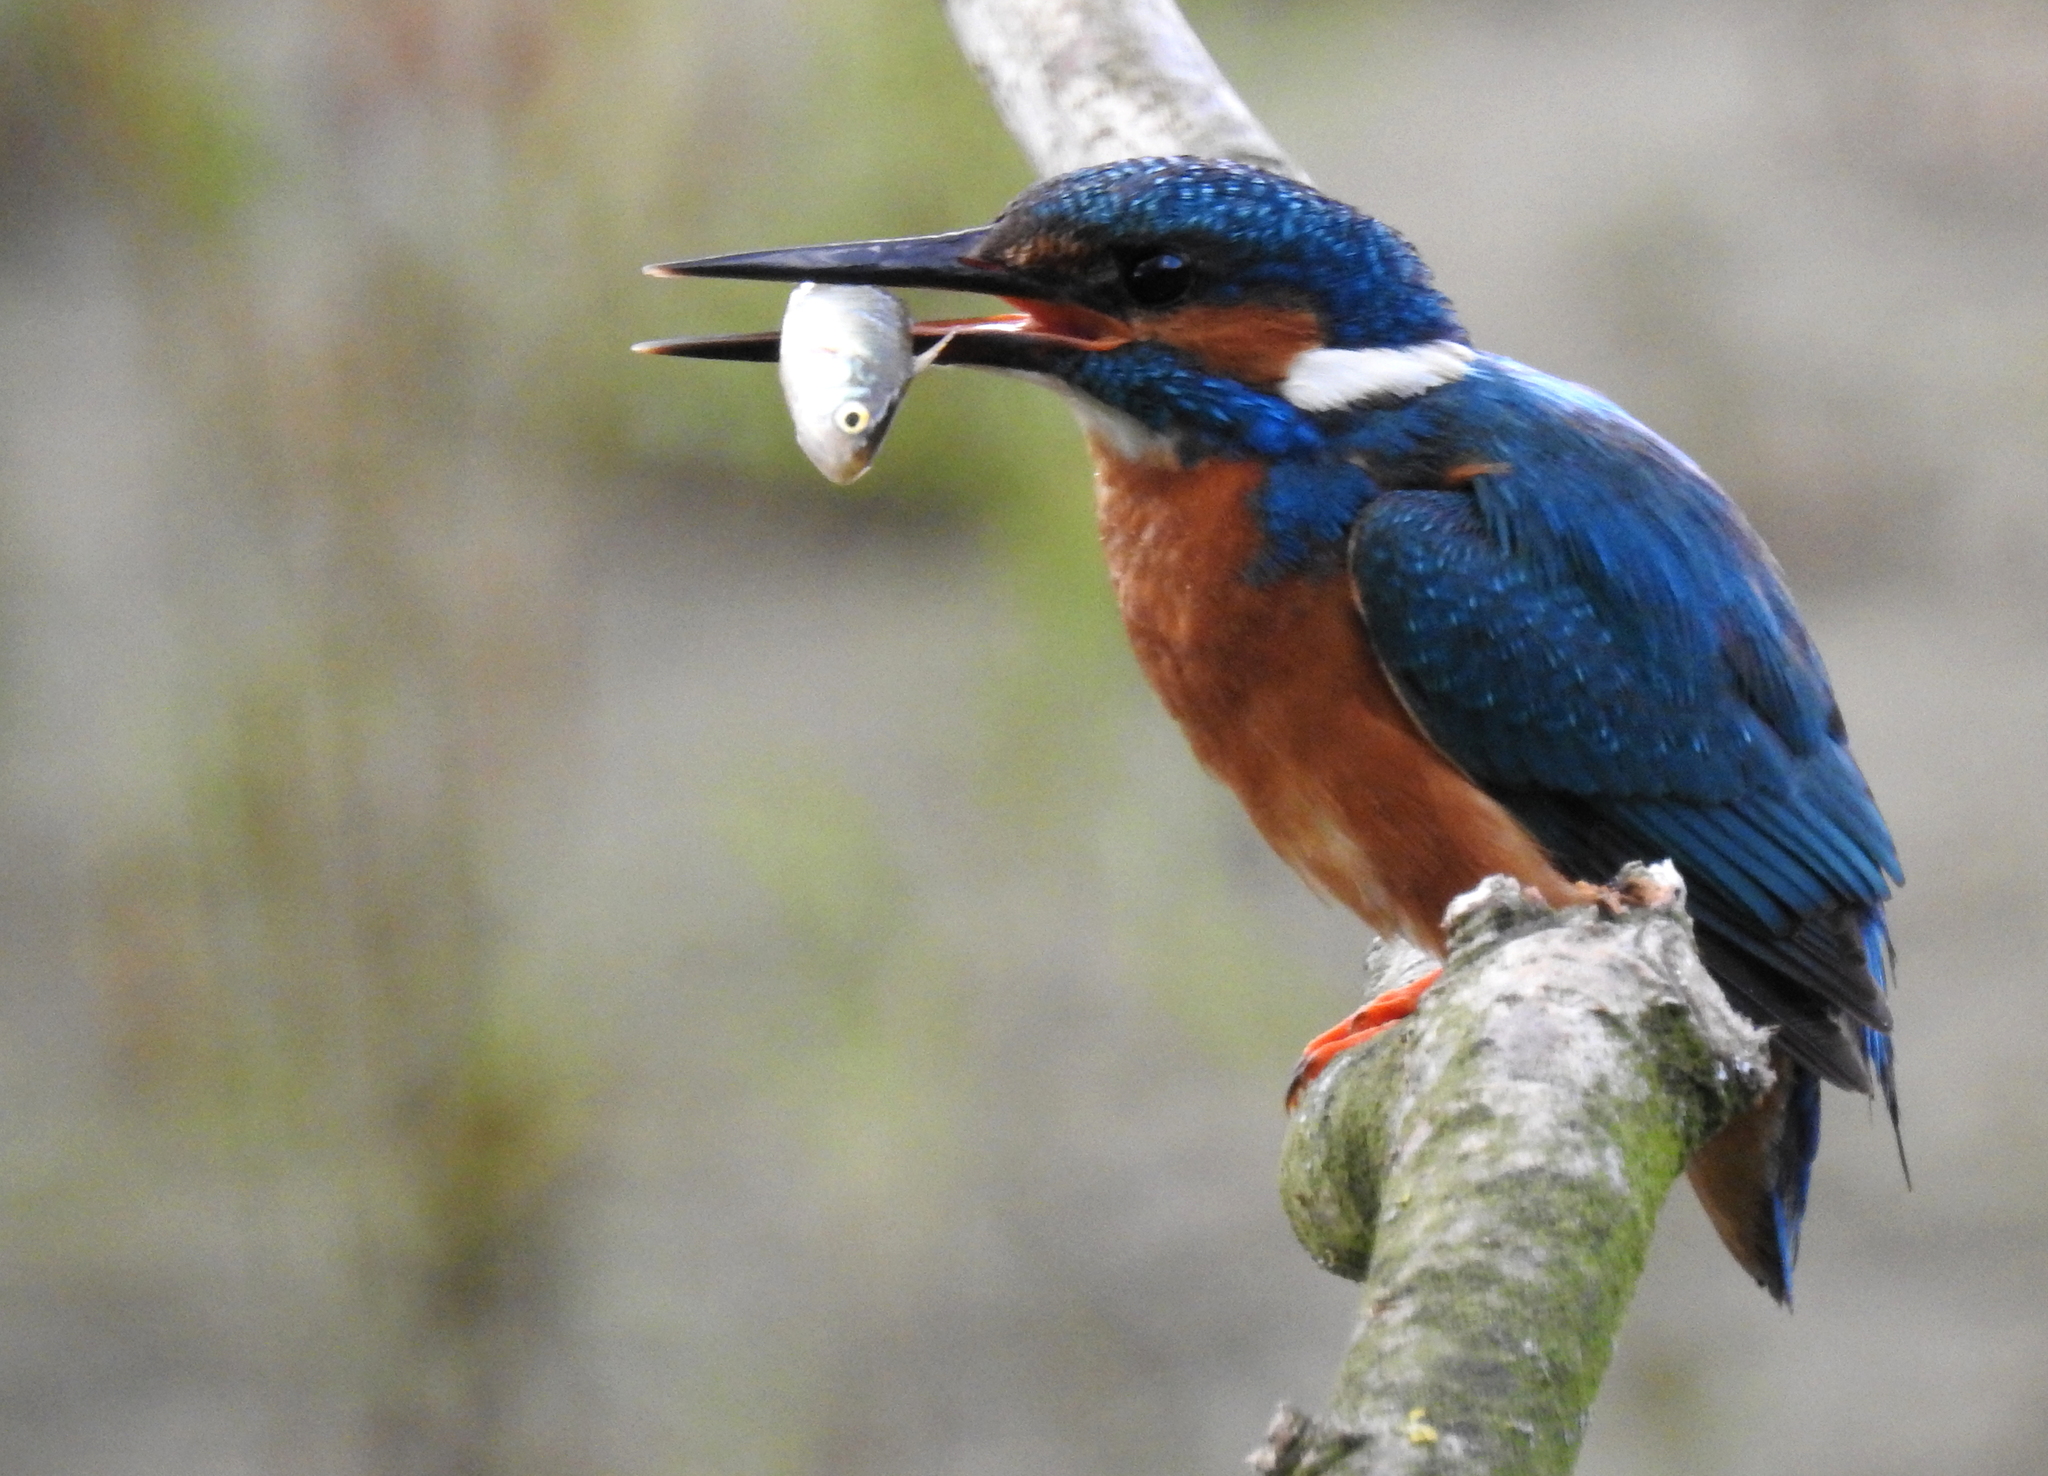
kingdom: Animalia
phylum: Chordata
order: Gasterosteiformes
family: Gasterosteidae
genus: Gasterosteus
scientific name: Gasterosteus aculeatus
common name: Three-spined stickleback
